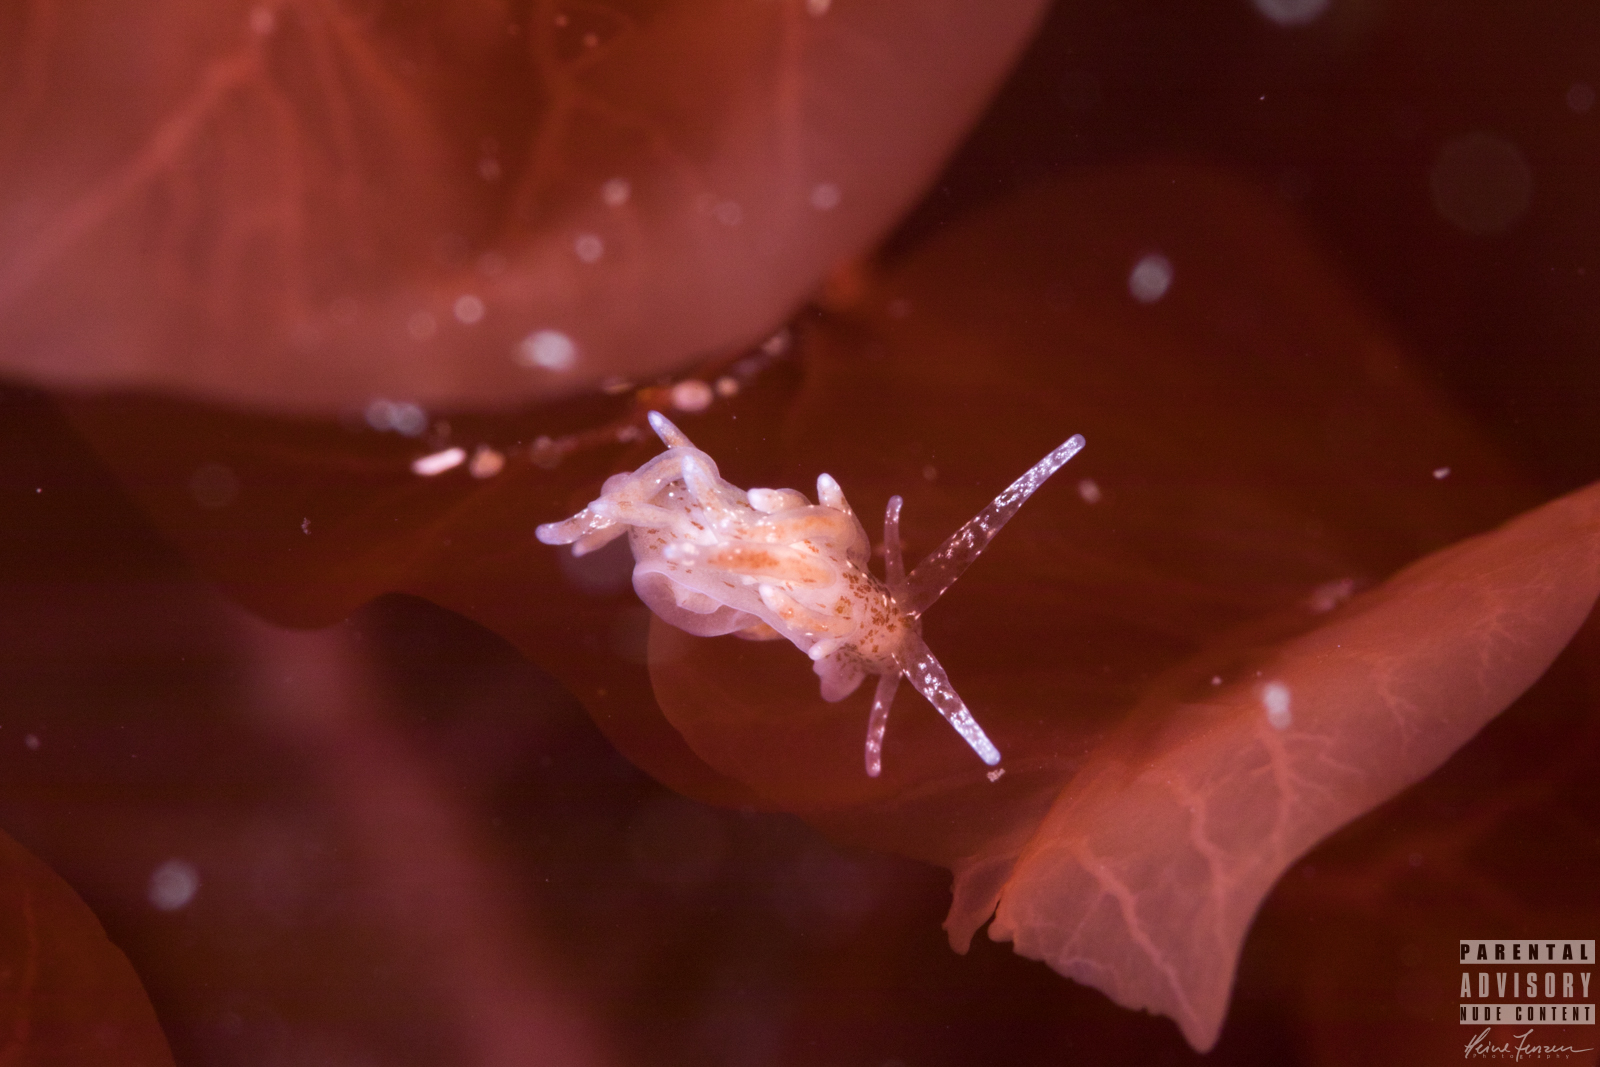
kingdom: Animalia
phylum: Mollusca
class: Gastropoda
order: Nudibranchia
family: Eubranchidae
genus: Eubranchus
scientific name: Eubranchus exiguus
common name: Balloon aeolis
